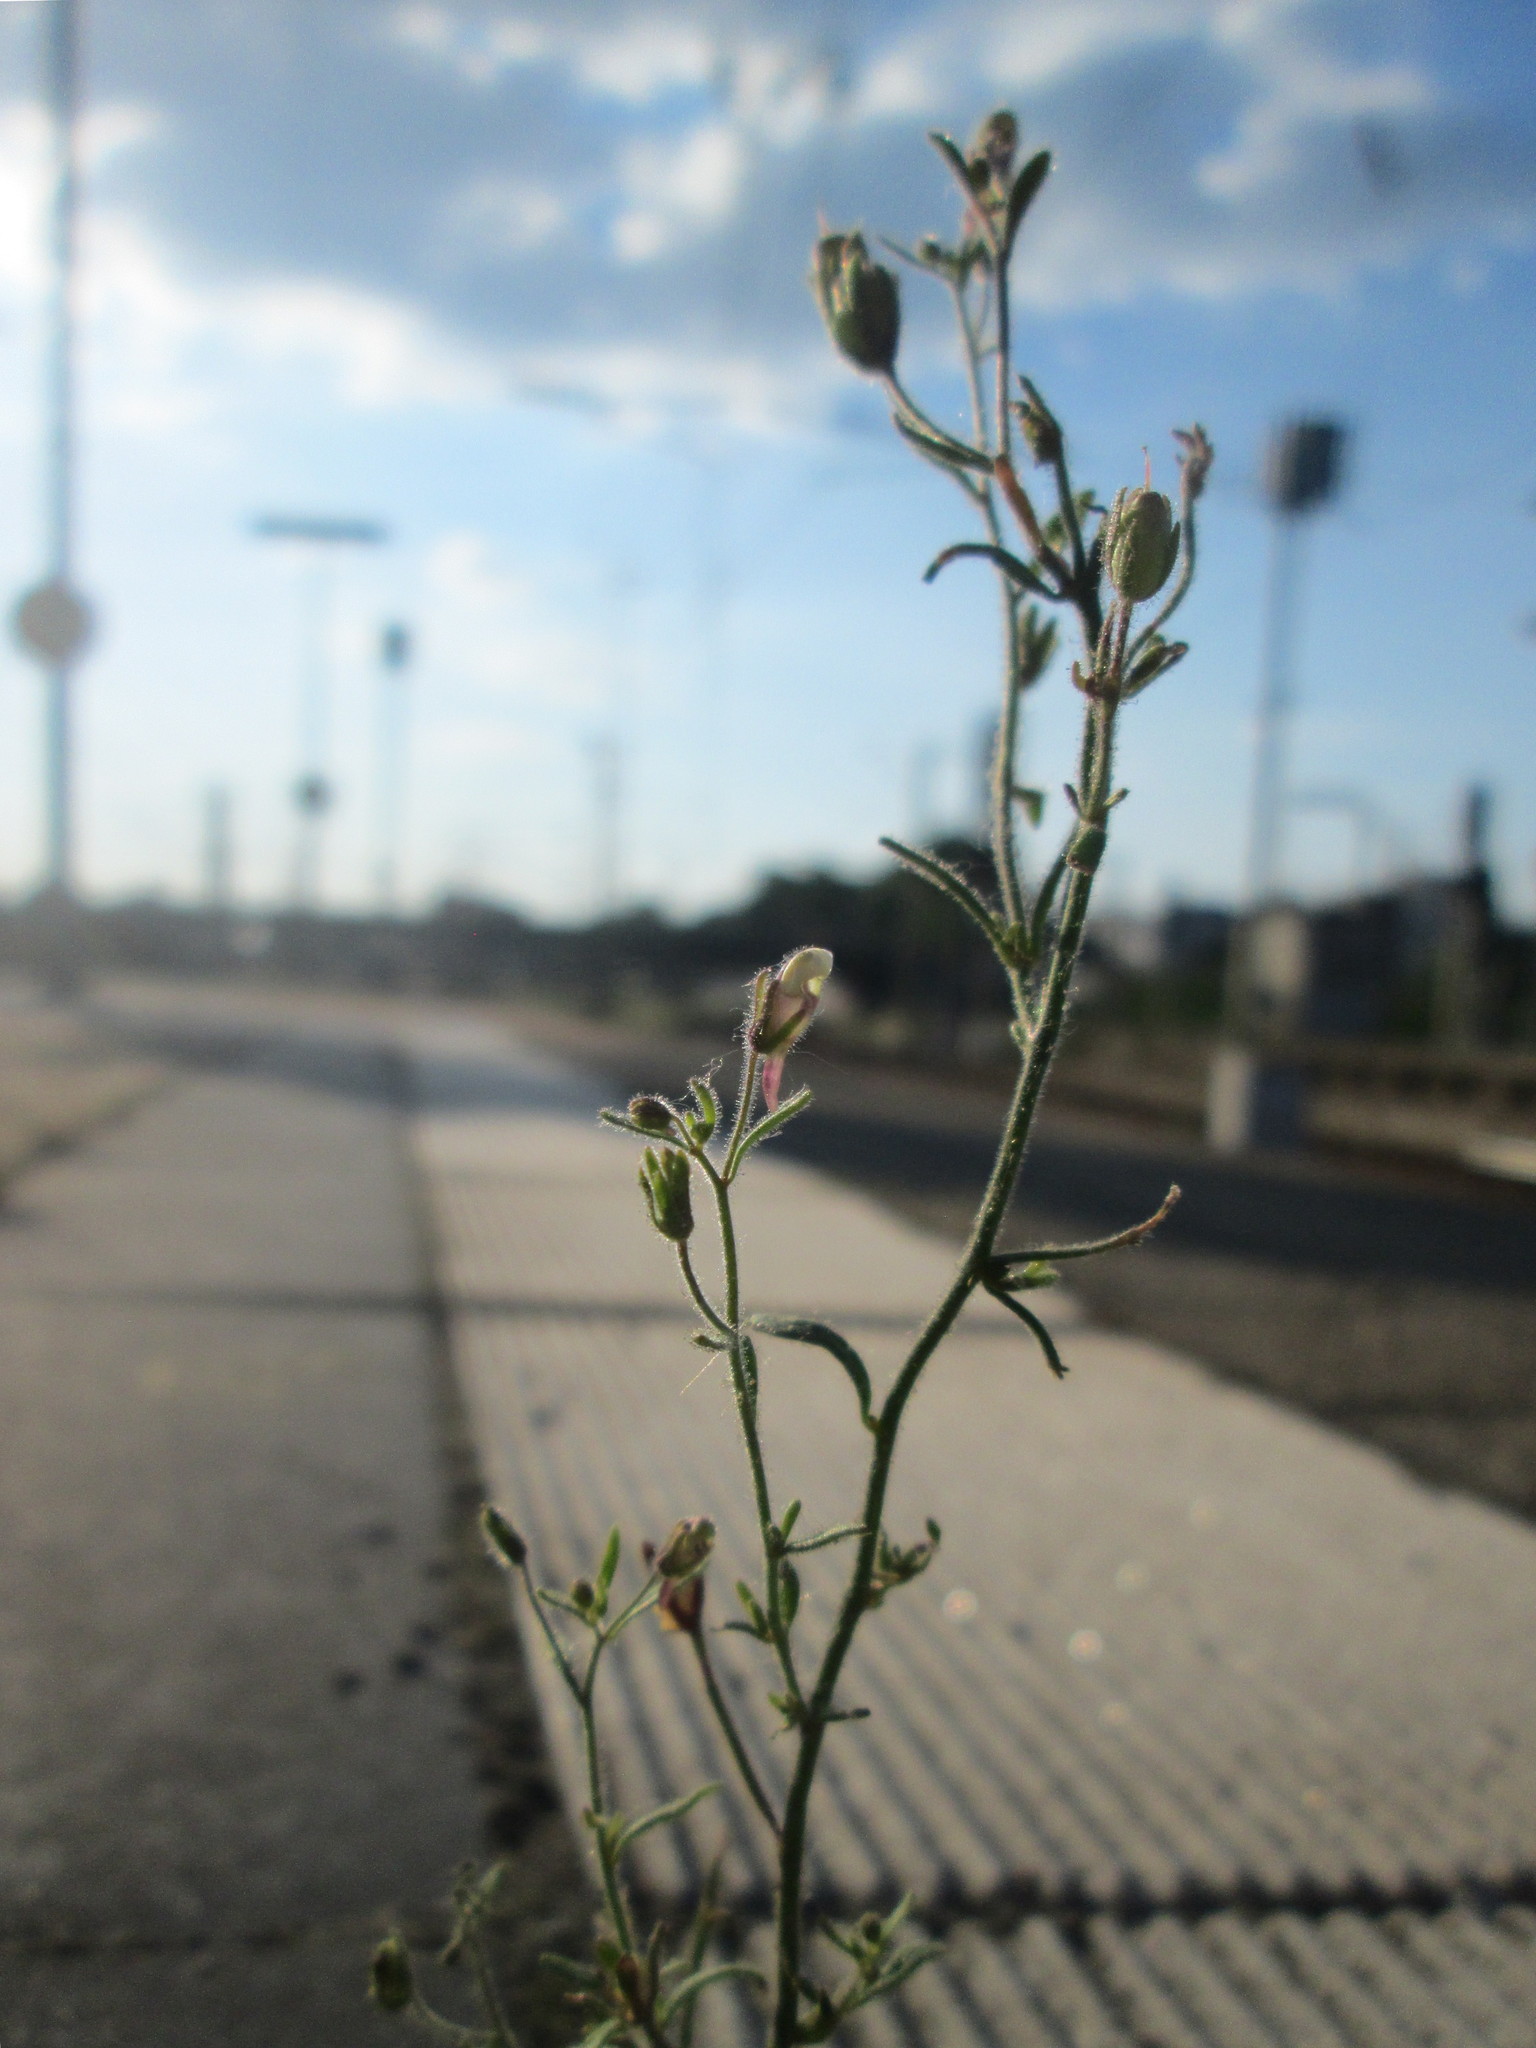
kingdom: Plantae
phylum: Tracheophyta
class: Magnoliopsida
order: Lamiales
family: Plantaginaceae
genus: Chaenorhinum
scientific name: Chaenorhinum minus
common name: Dwarf snapdragon
